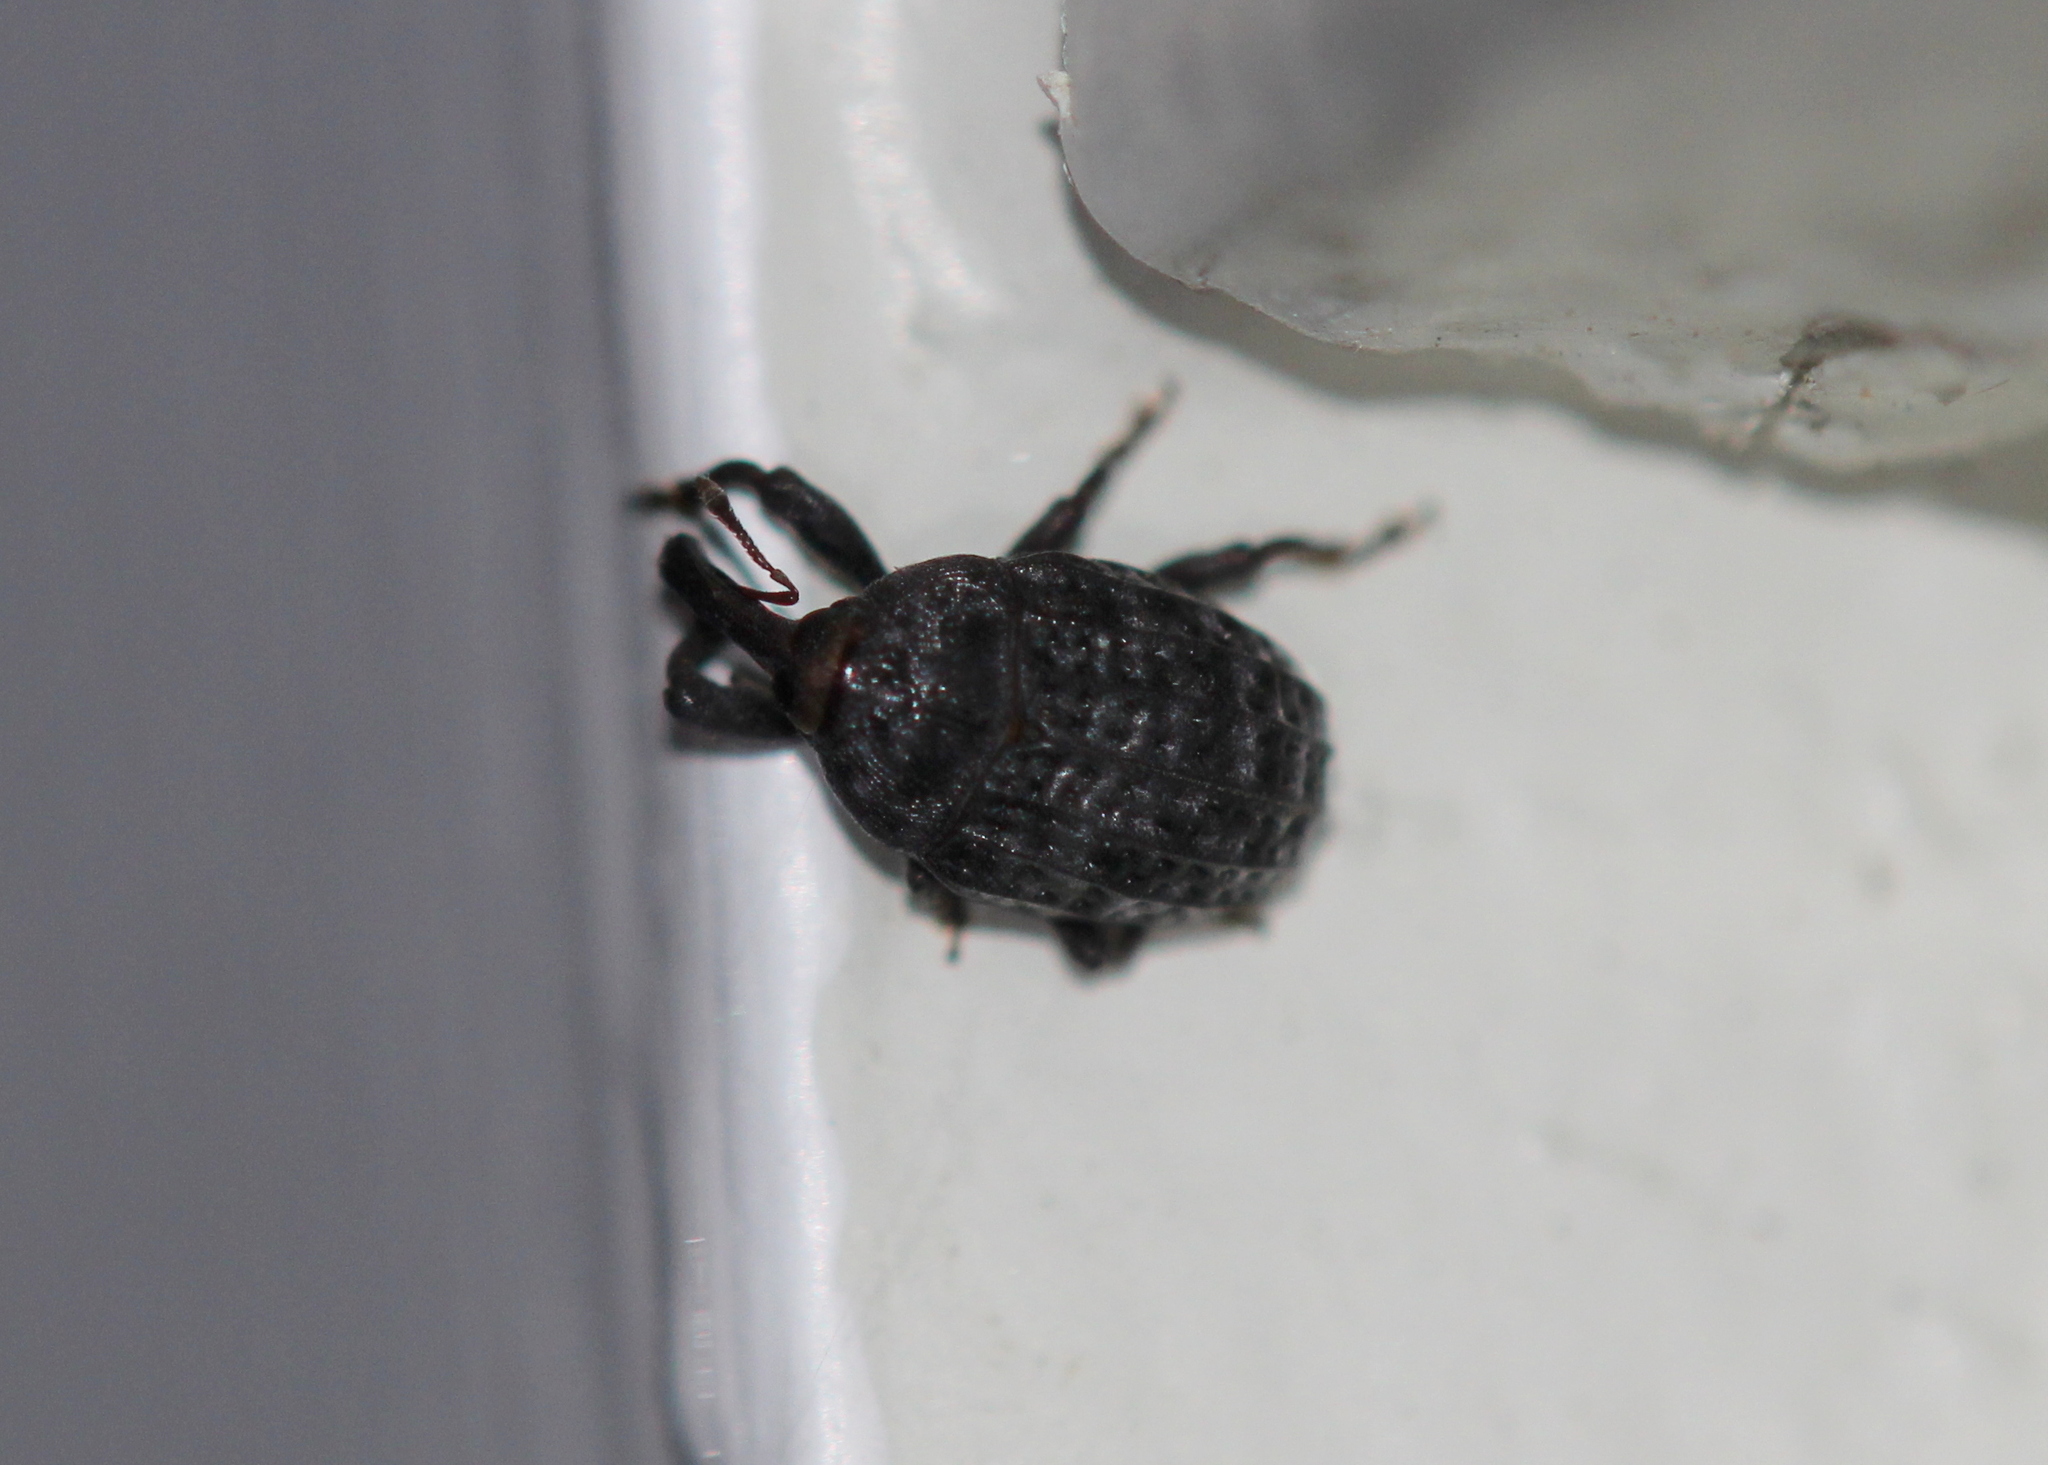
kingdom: Animalia
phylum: Arthropoda
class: Insecta
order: Coleoptera
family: Curculionidae
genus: Rhyssomatus
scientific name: Rhyssomatus lineaticollis
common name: Milkweed stem weevil
